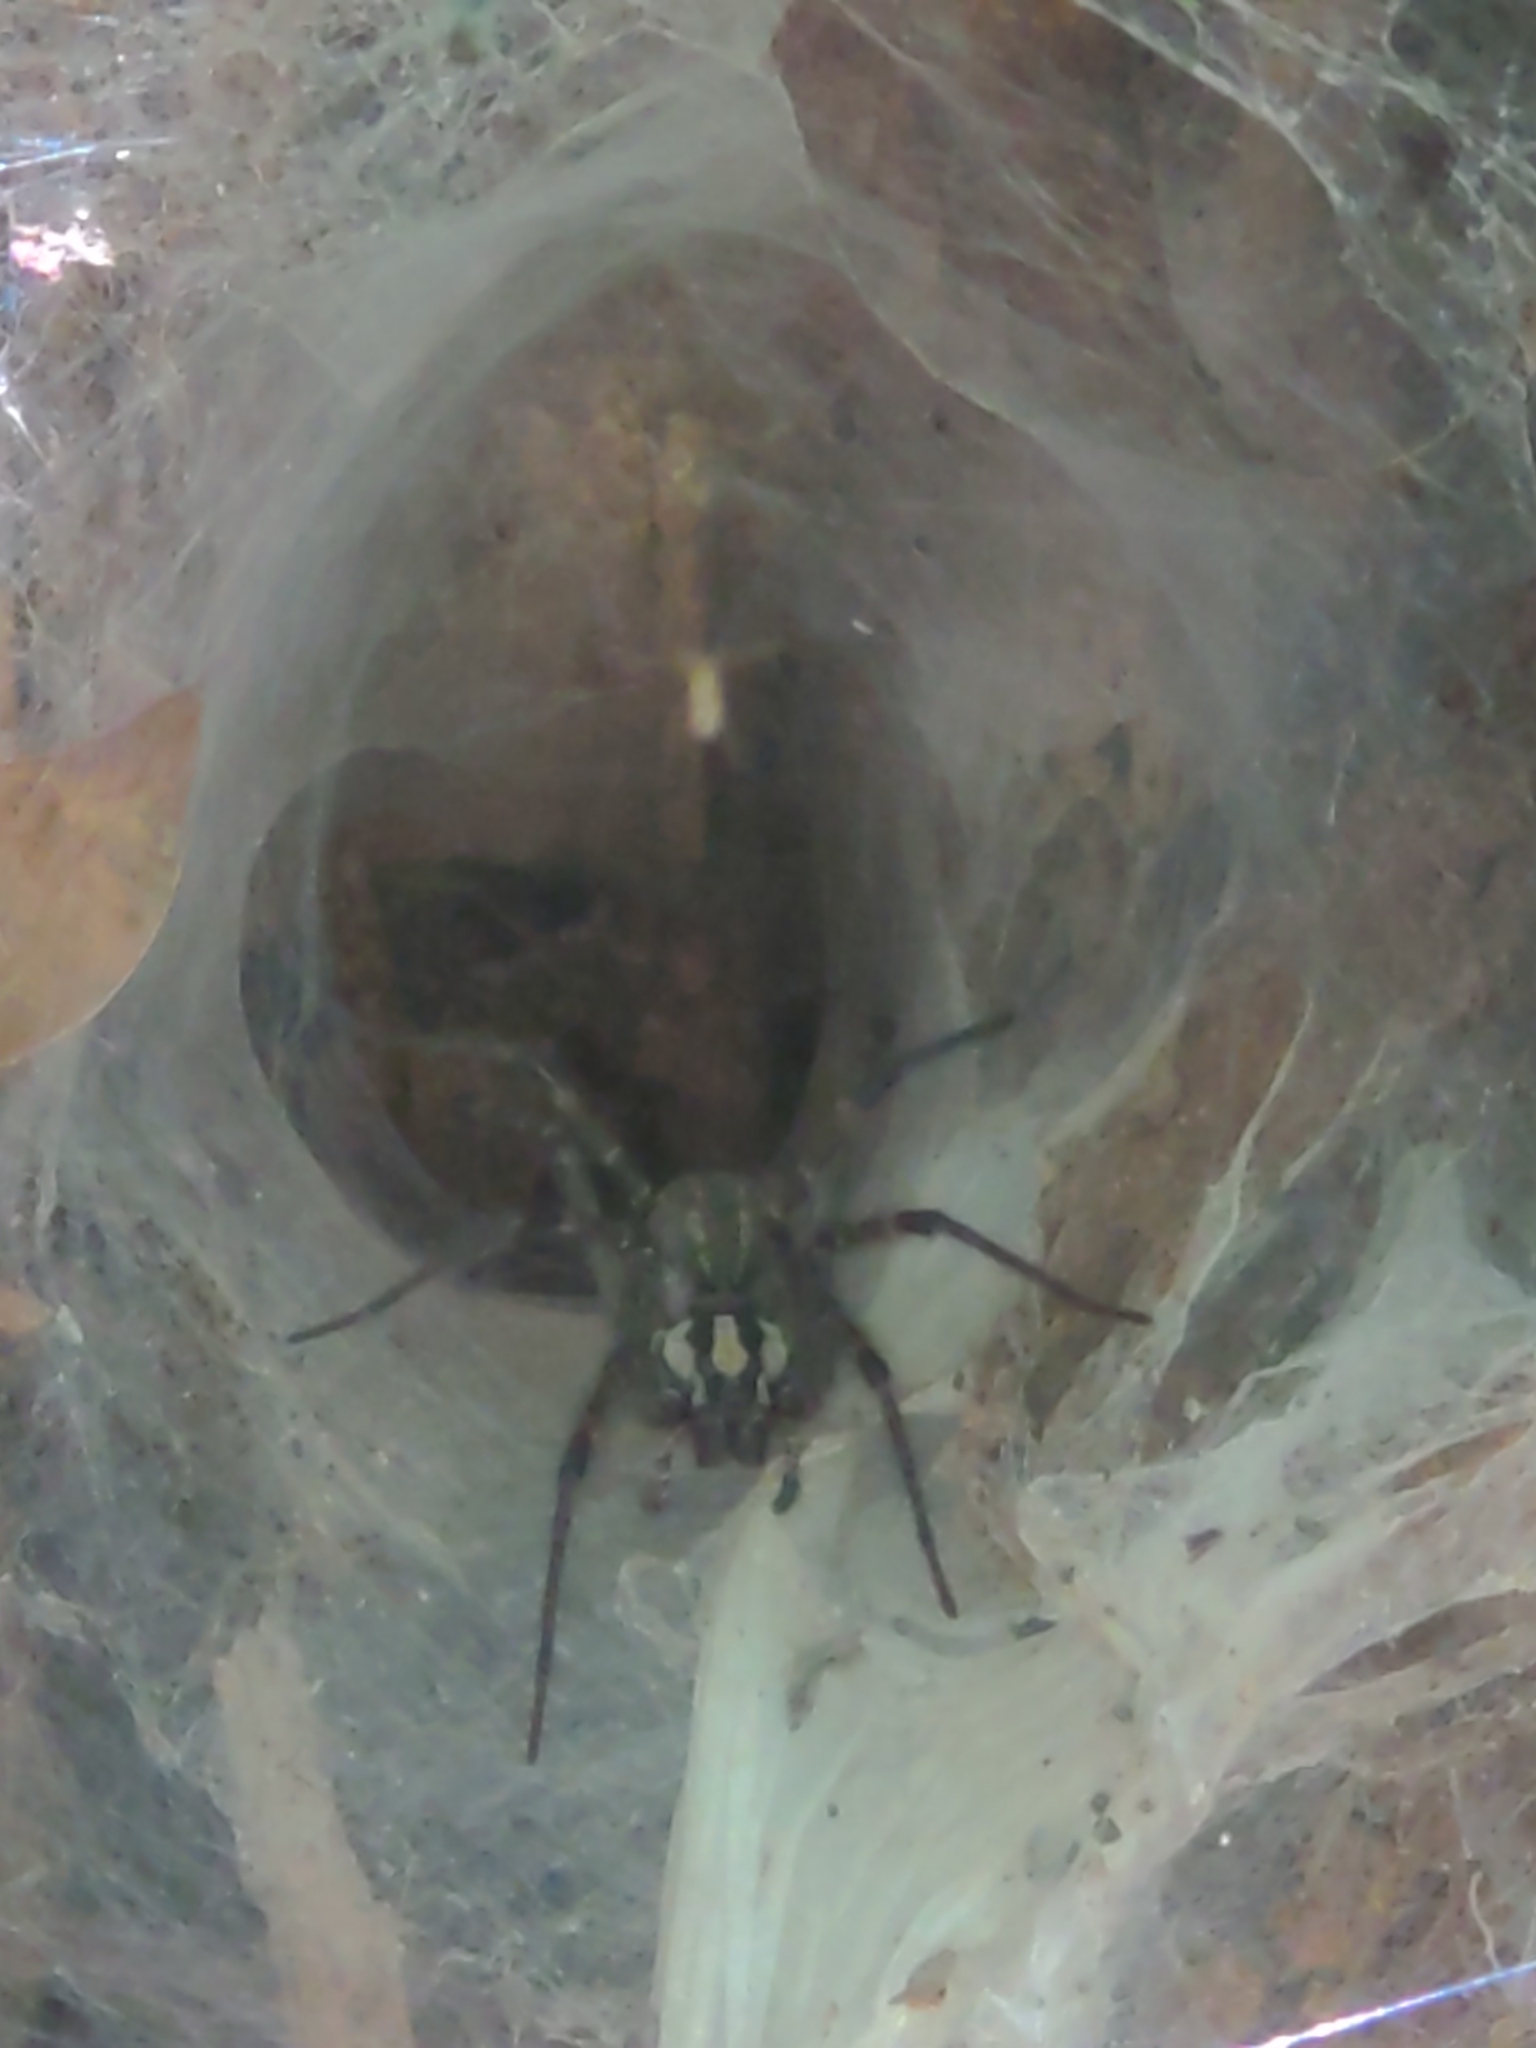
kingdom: Animalia
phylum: Arthropoda
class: Arachnida
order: Araneae
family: Agelenidae
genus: Agelenopsis
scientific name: Agelenopsis
